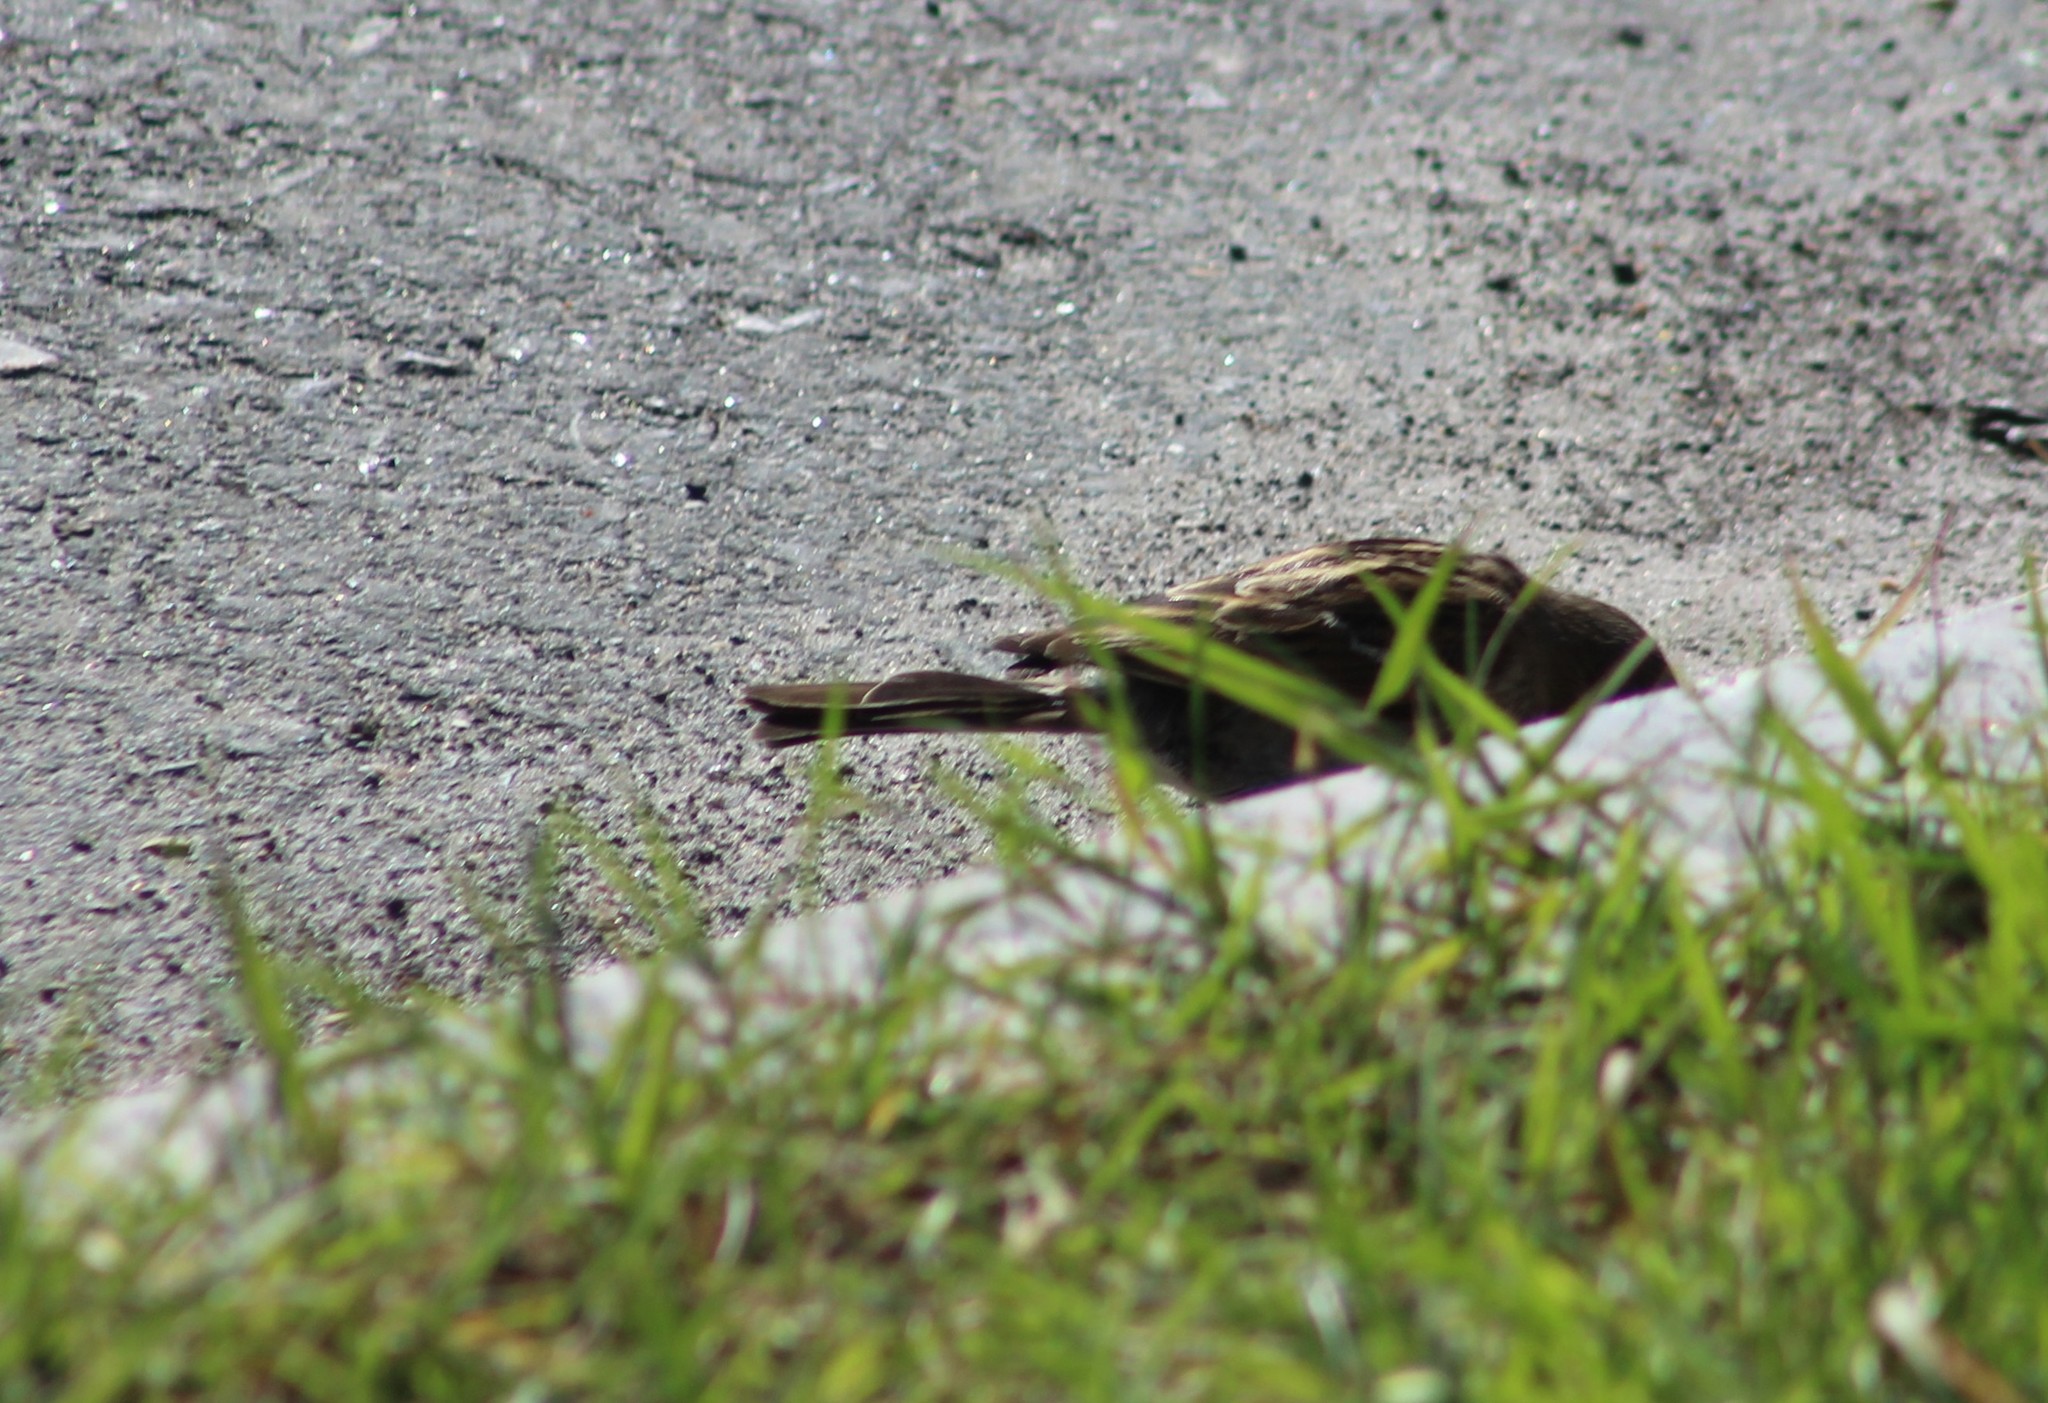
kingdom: Animalia
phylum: Chordata
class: Aves
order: Passeriformes
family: Passeridae
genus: Passer
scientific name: Passer domesticus
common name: House sparrow
